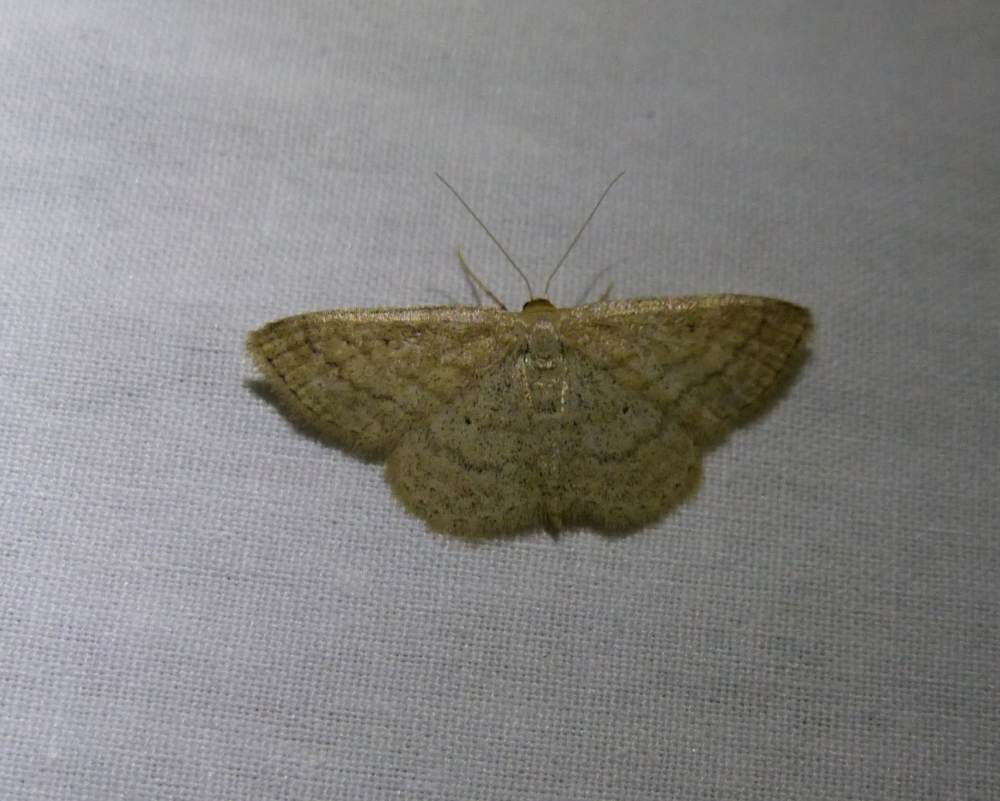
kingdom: Animalia
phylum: Arthropoda
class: Insecta
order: Lepidoptera
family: Geometridae
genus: Scopula
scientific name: Scopula inductata
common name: Soft-lined wave
